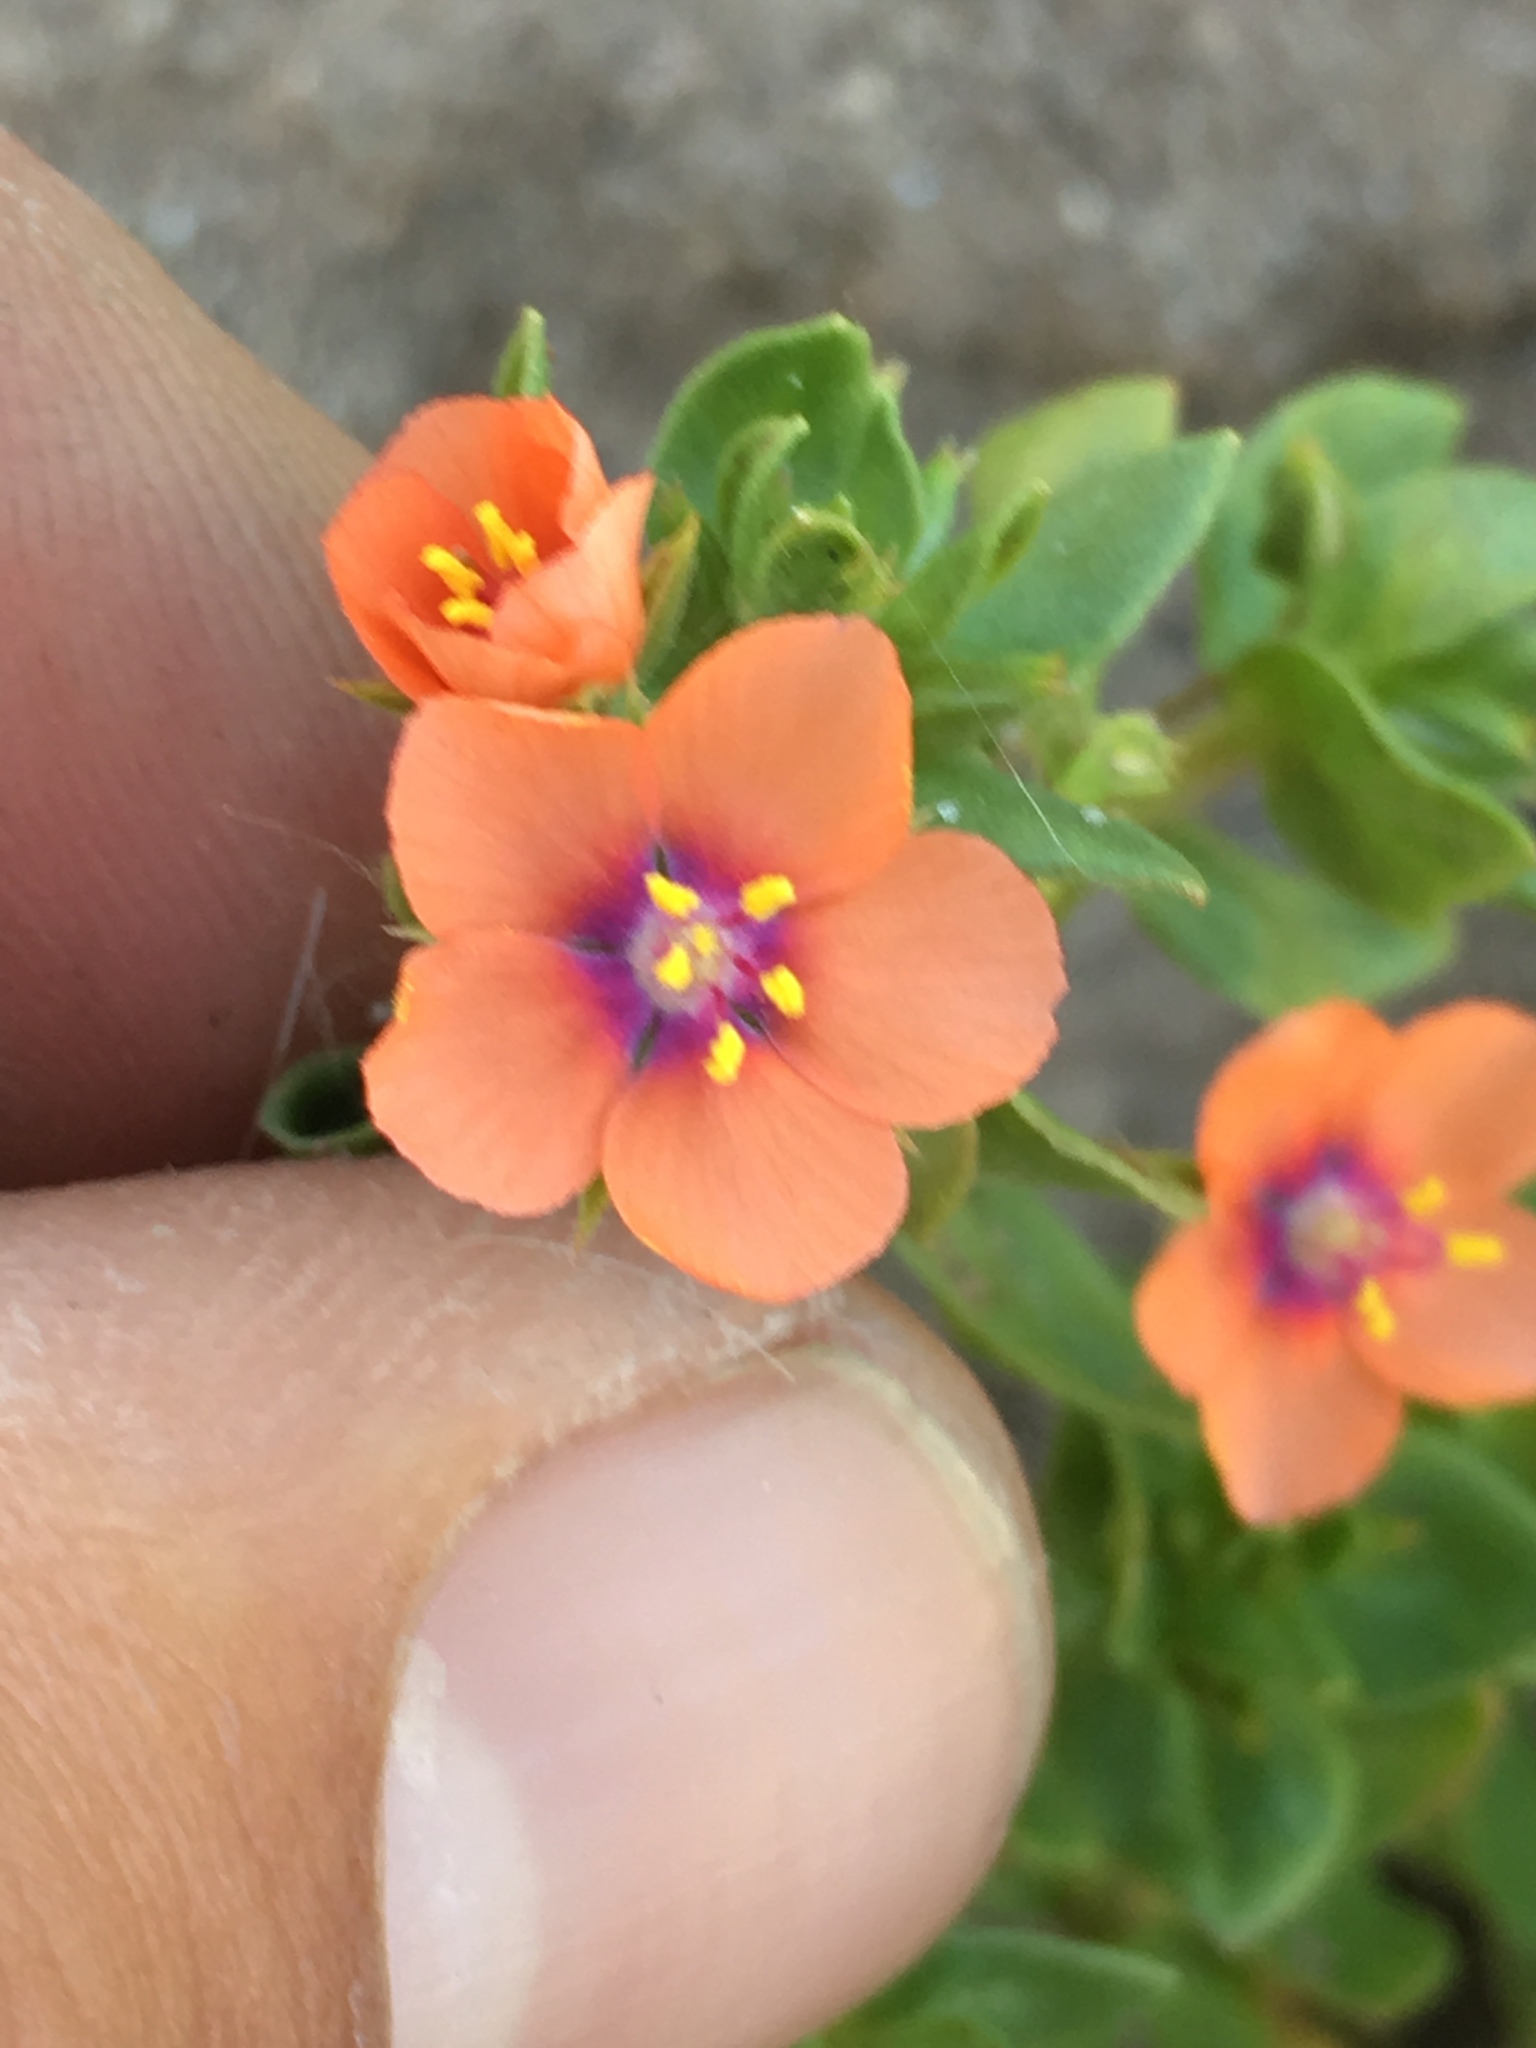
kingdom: Plantae
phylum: Tracheophyta
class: Magnoliopsida
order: Ericales
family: Primulaceae
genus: Lysimachia
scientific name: Lysimachia arvensis
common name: Scarlet pimpernel
